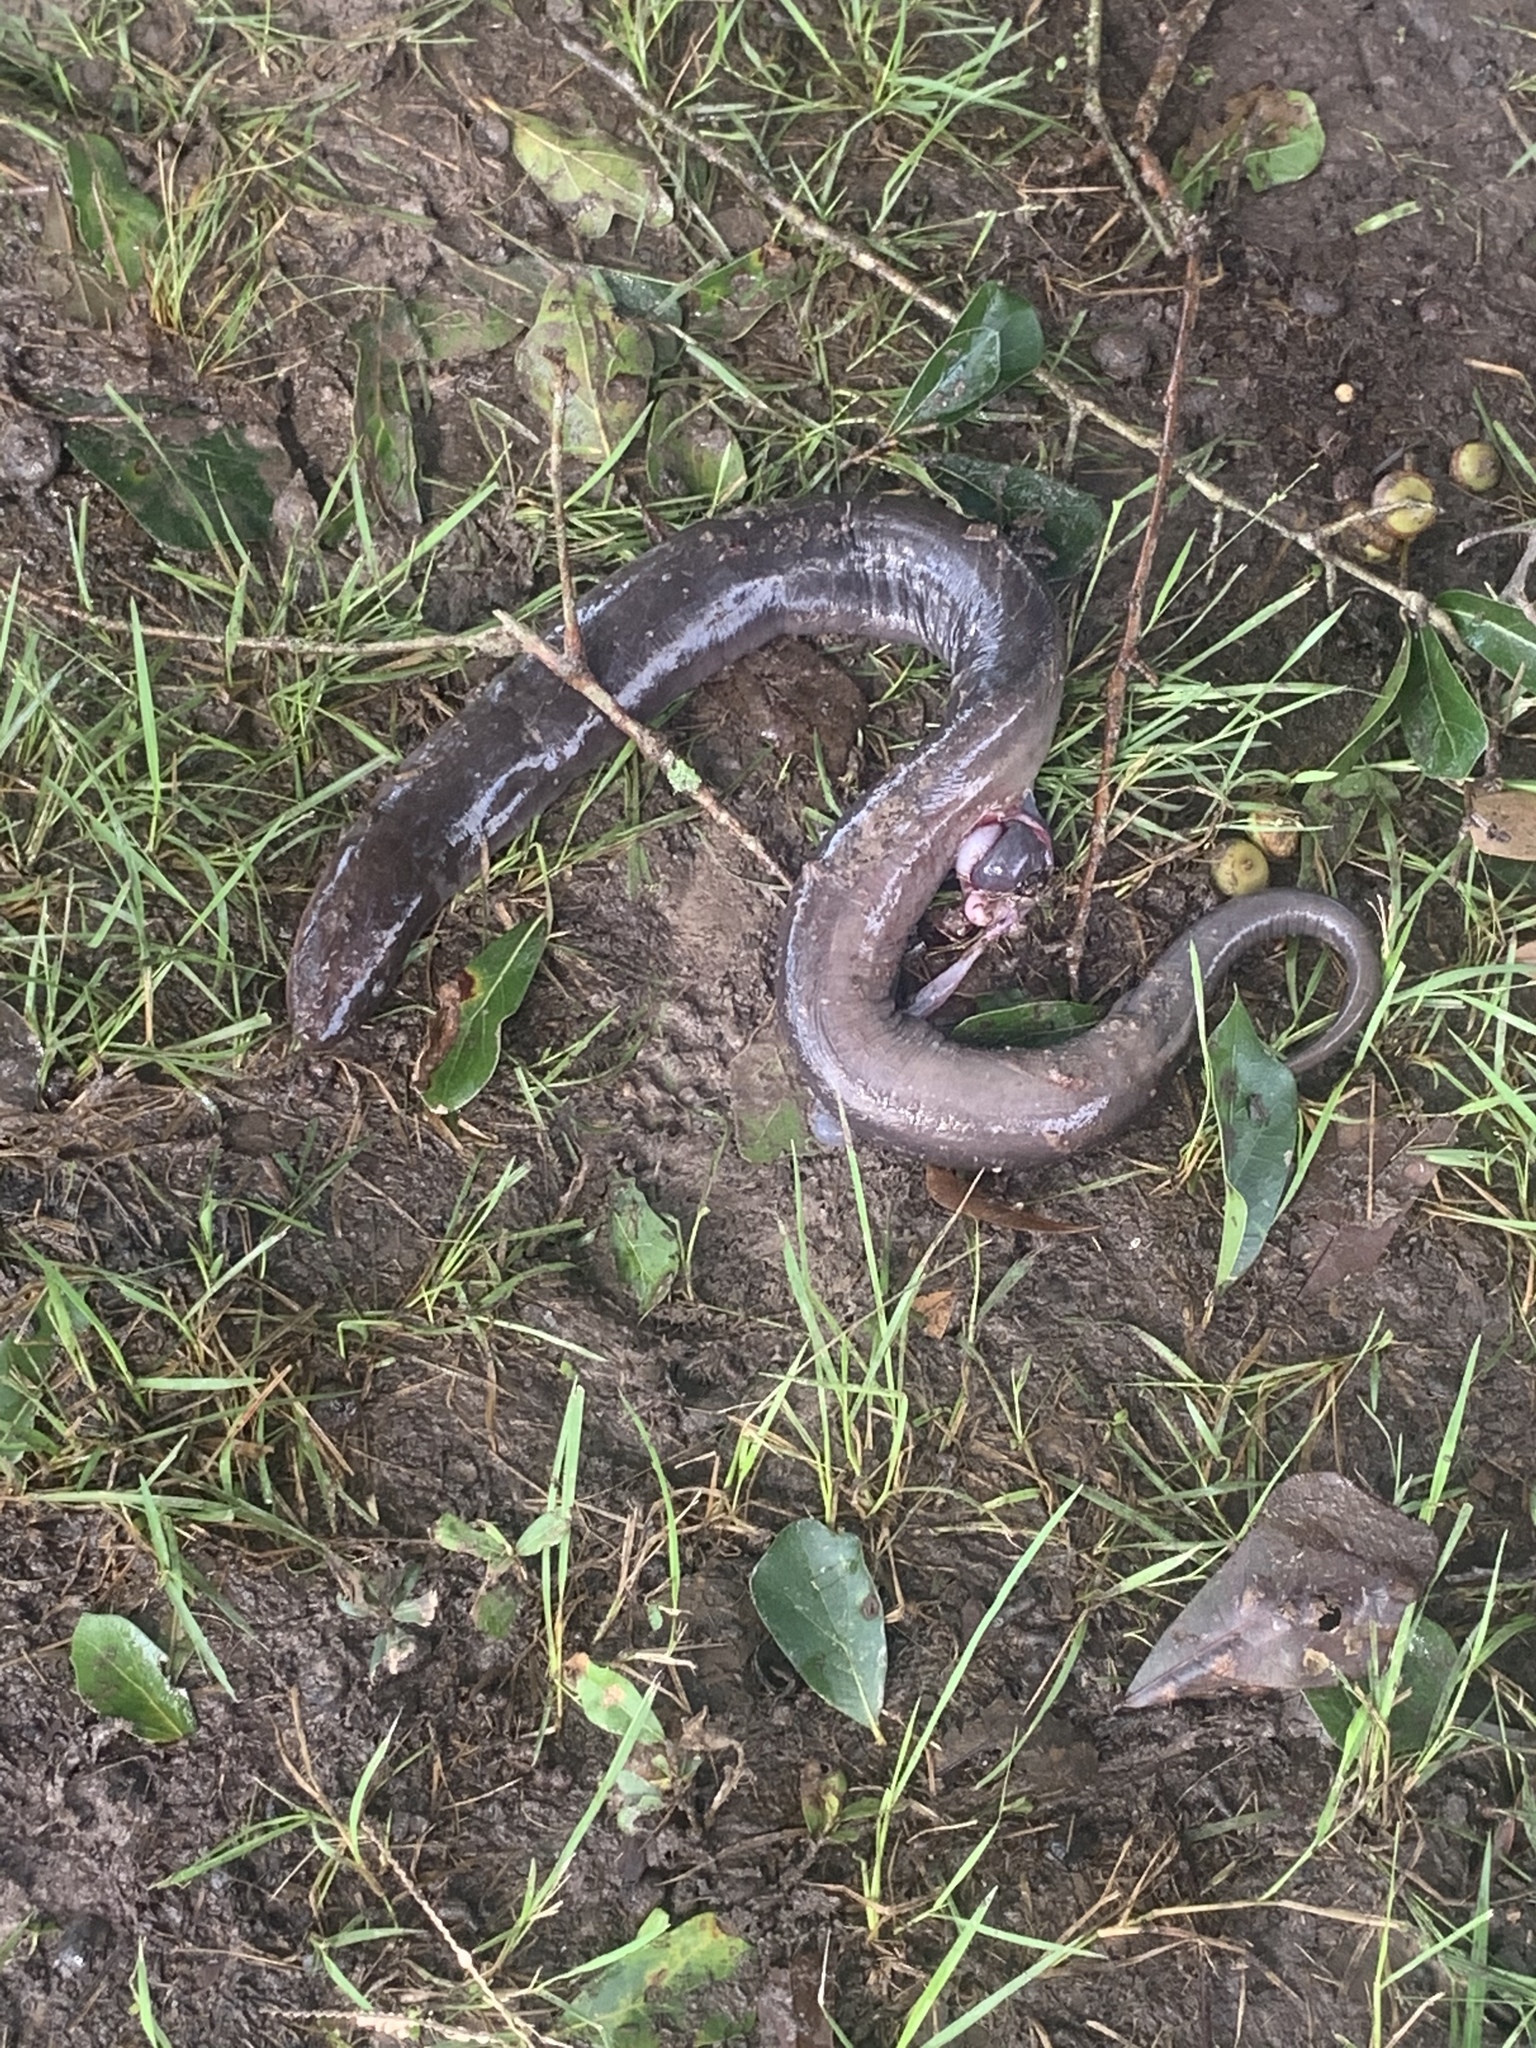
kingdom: Animalia
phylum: Chordata
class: Amphibia
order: Caudata
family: Amphiumidae
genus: Amphiuma
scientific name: Amphiuma tridactylum
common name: Three-toed amphiuma
